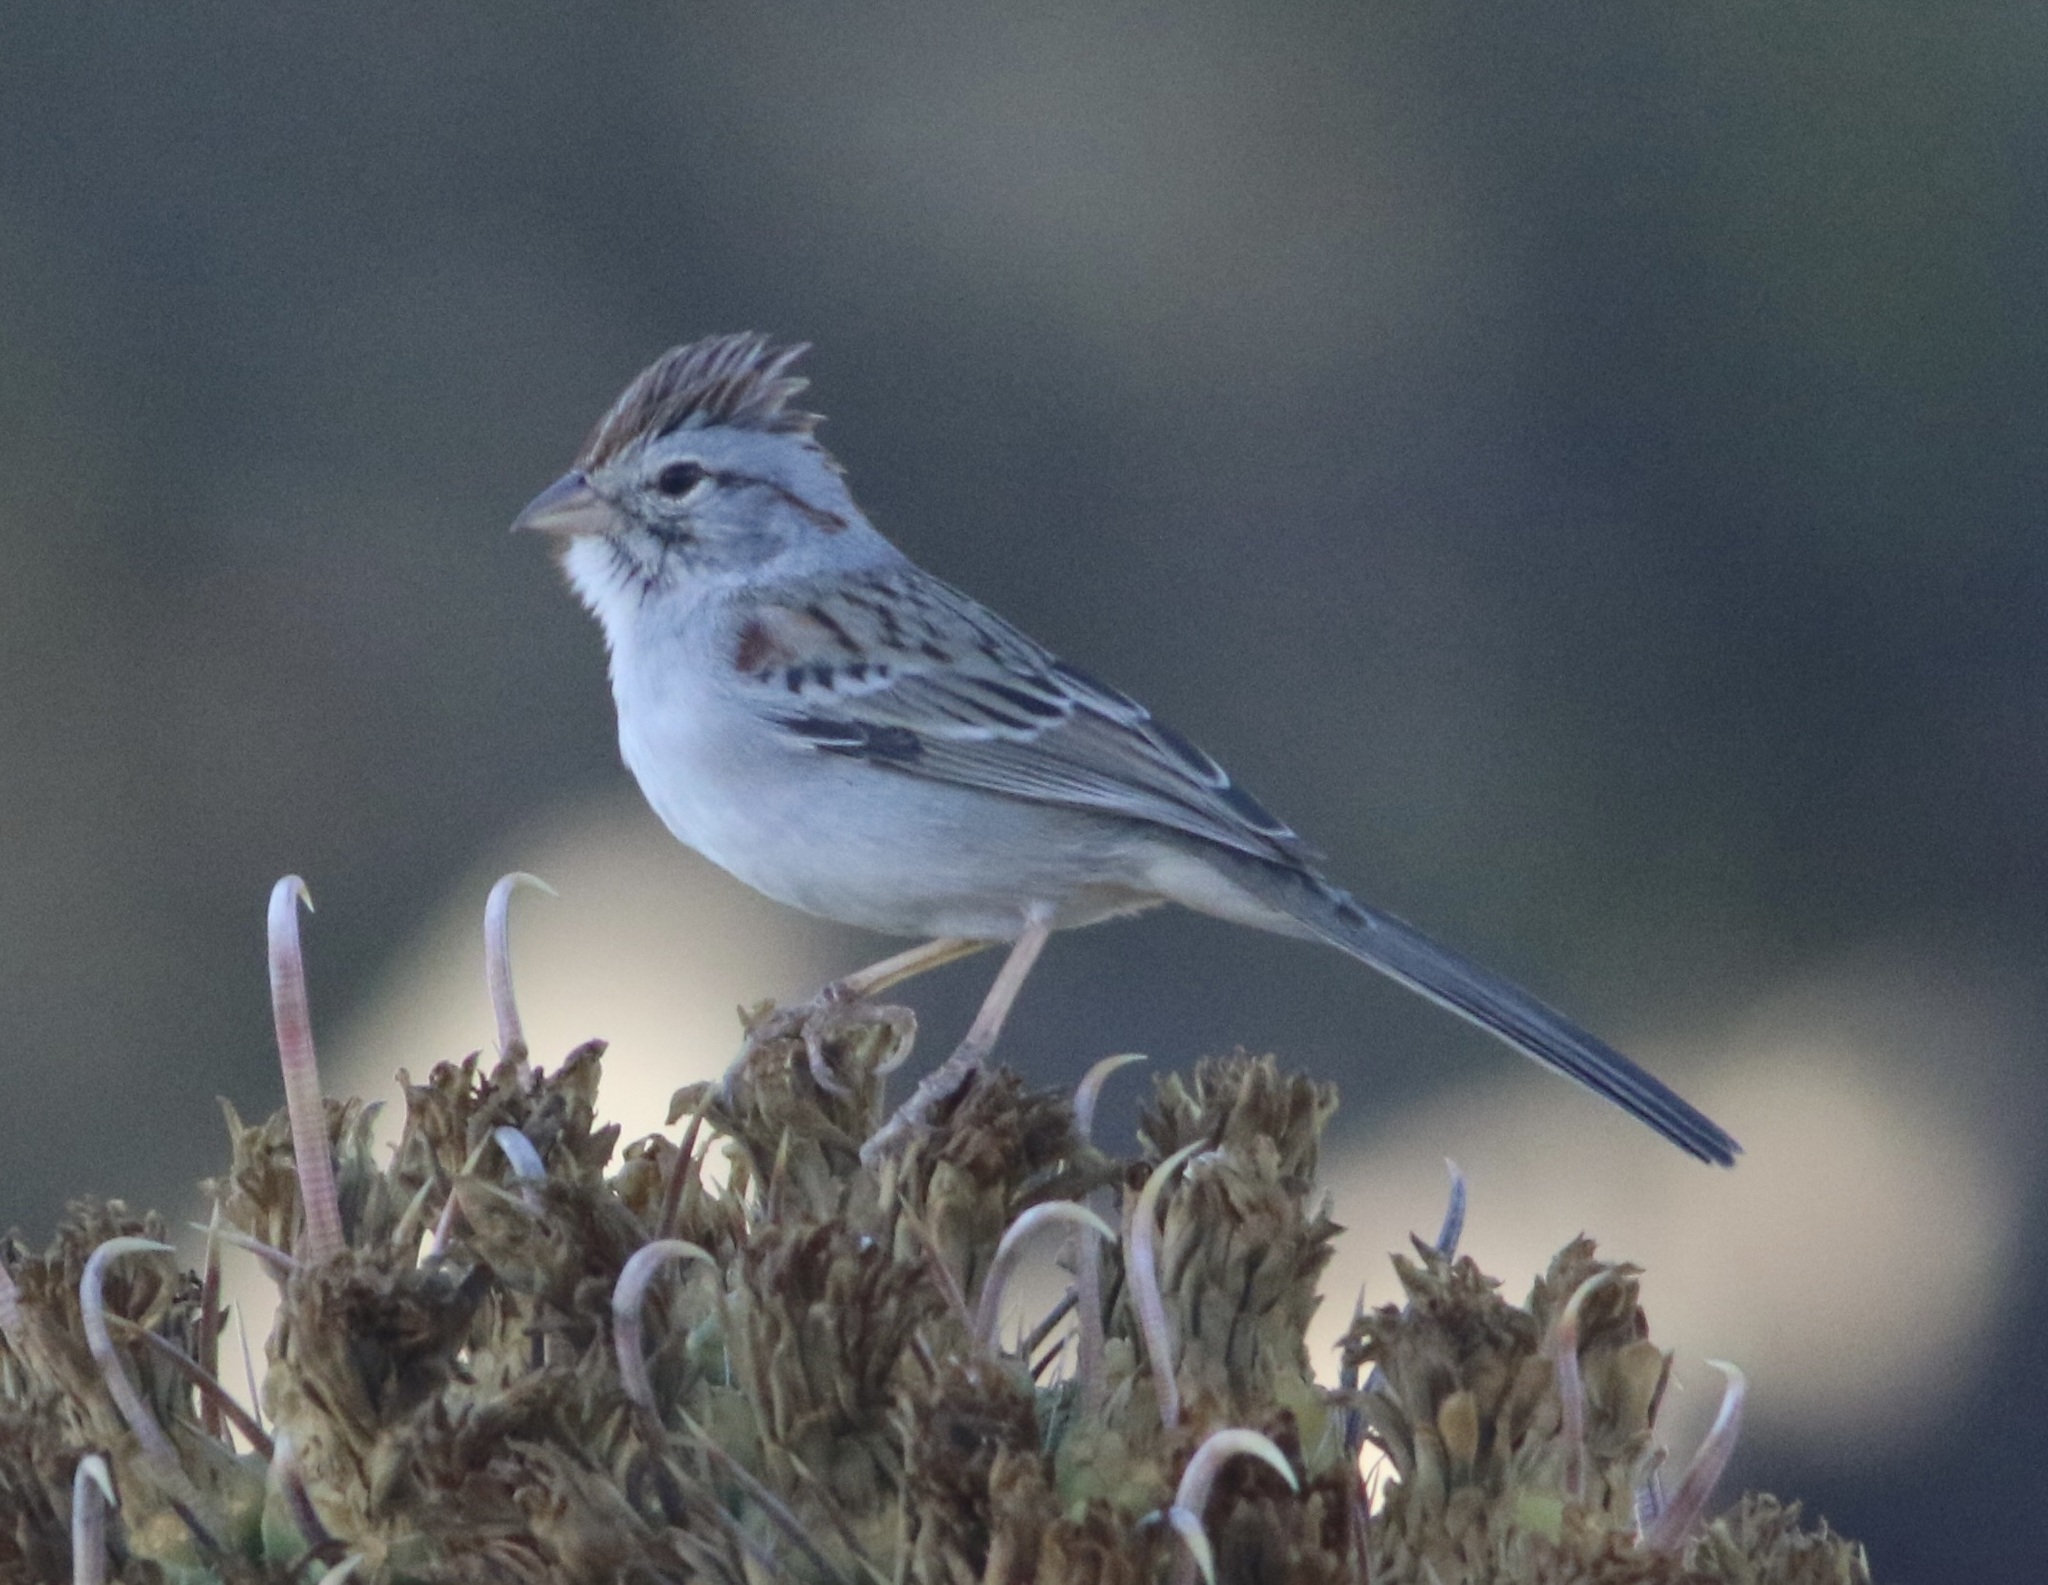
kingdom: Animalia
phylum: Chordata
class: Aves
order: Passeriformes
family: Passerellidae
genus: Peucaea
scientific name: Peucaea carpalis
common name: Rufous-winged sparrow
